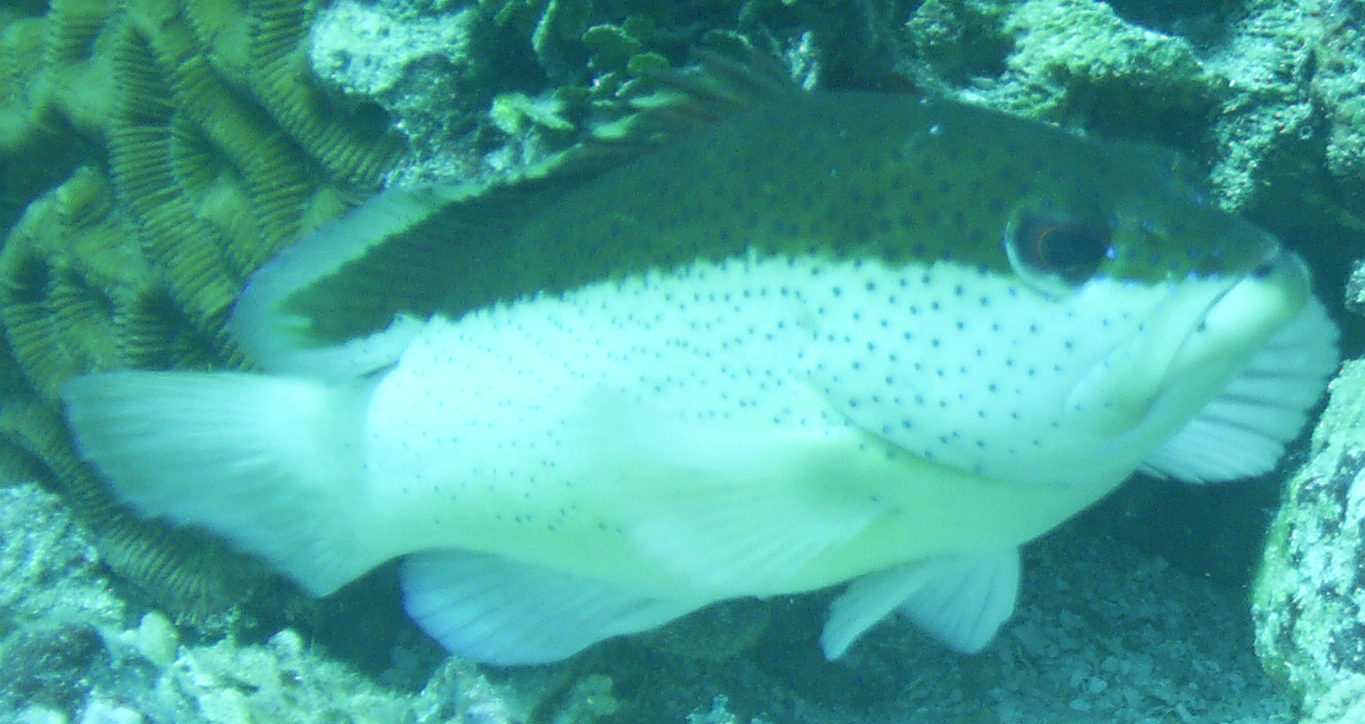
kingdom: Animalia
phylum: Chordata
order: Perciformes
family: Serranidae
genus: Cephalopholis
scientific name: Cephalopholis fulva
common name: Butterfish
